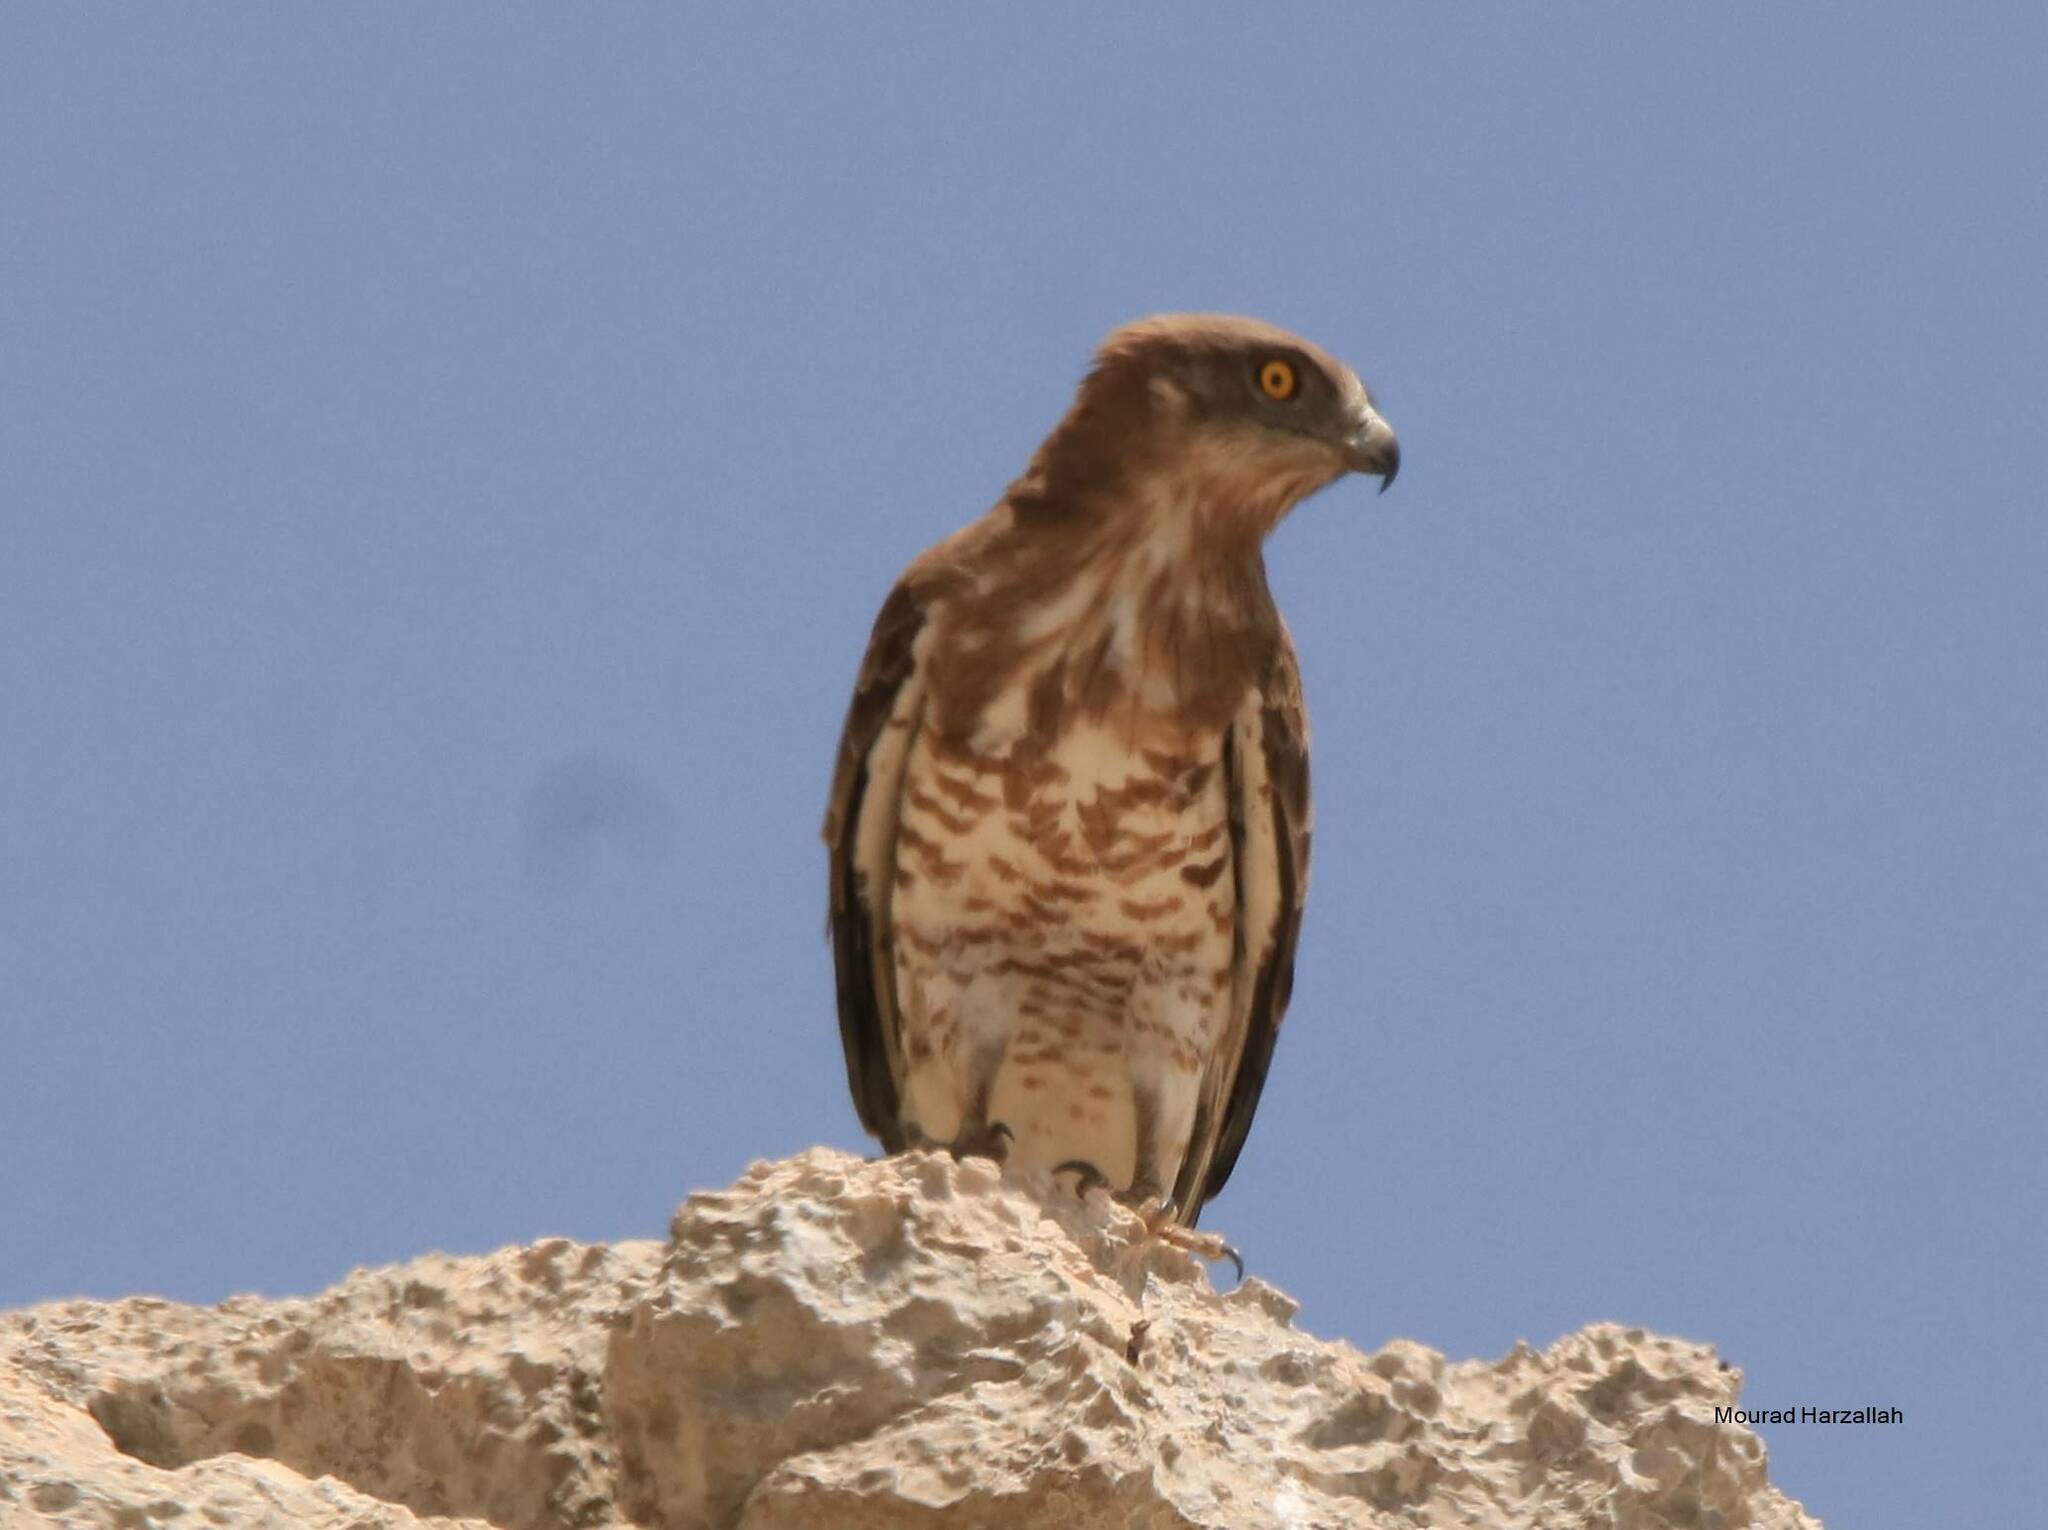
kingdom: Animalia
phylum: Chordata
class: Aves
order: Accipitriformes
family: Accipitridae
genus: Circaetus
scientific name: Circaetus gallicus
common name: Short-toed snake eagle
